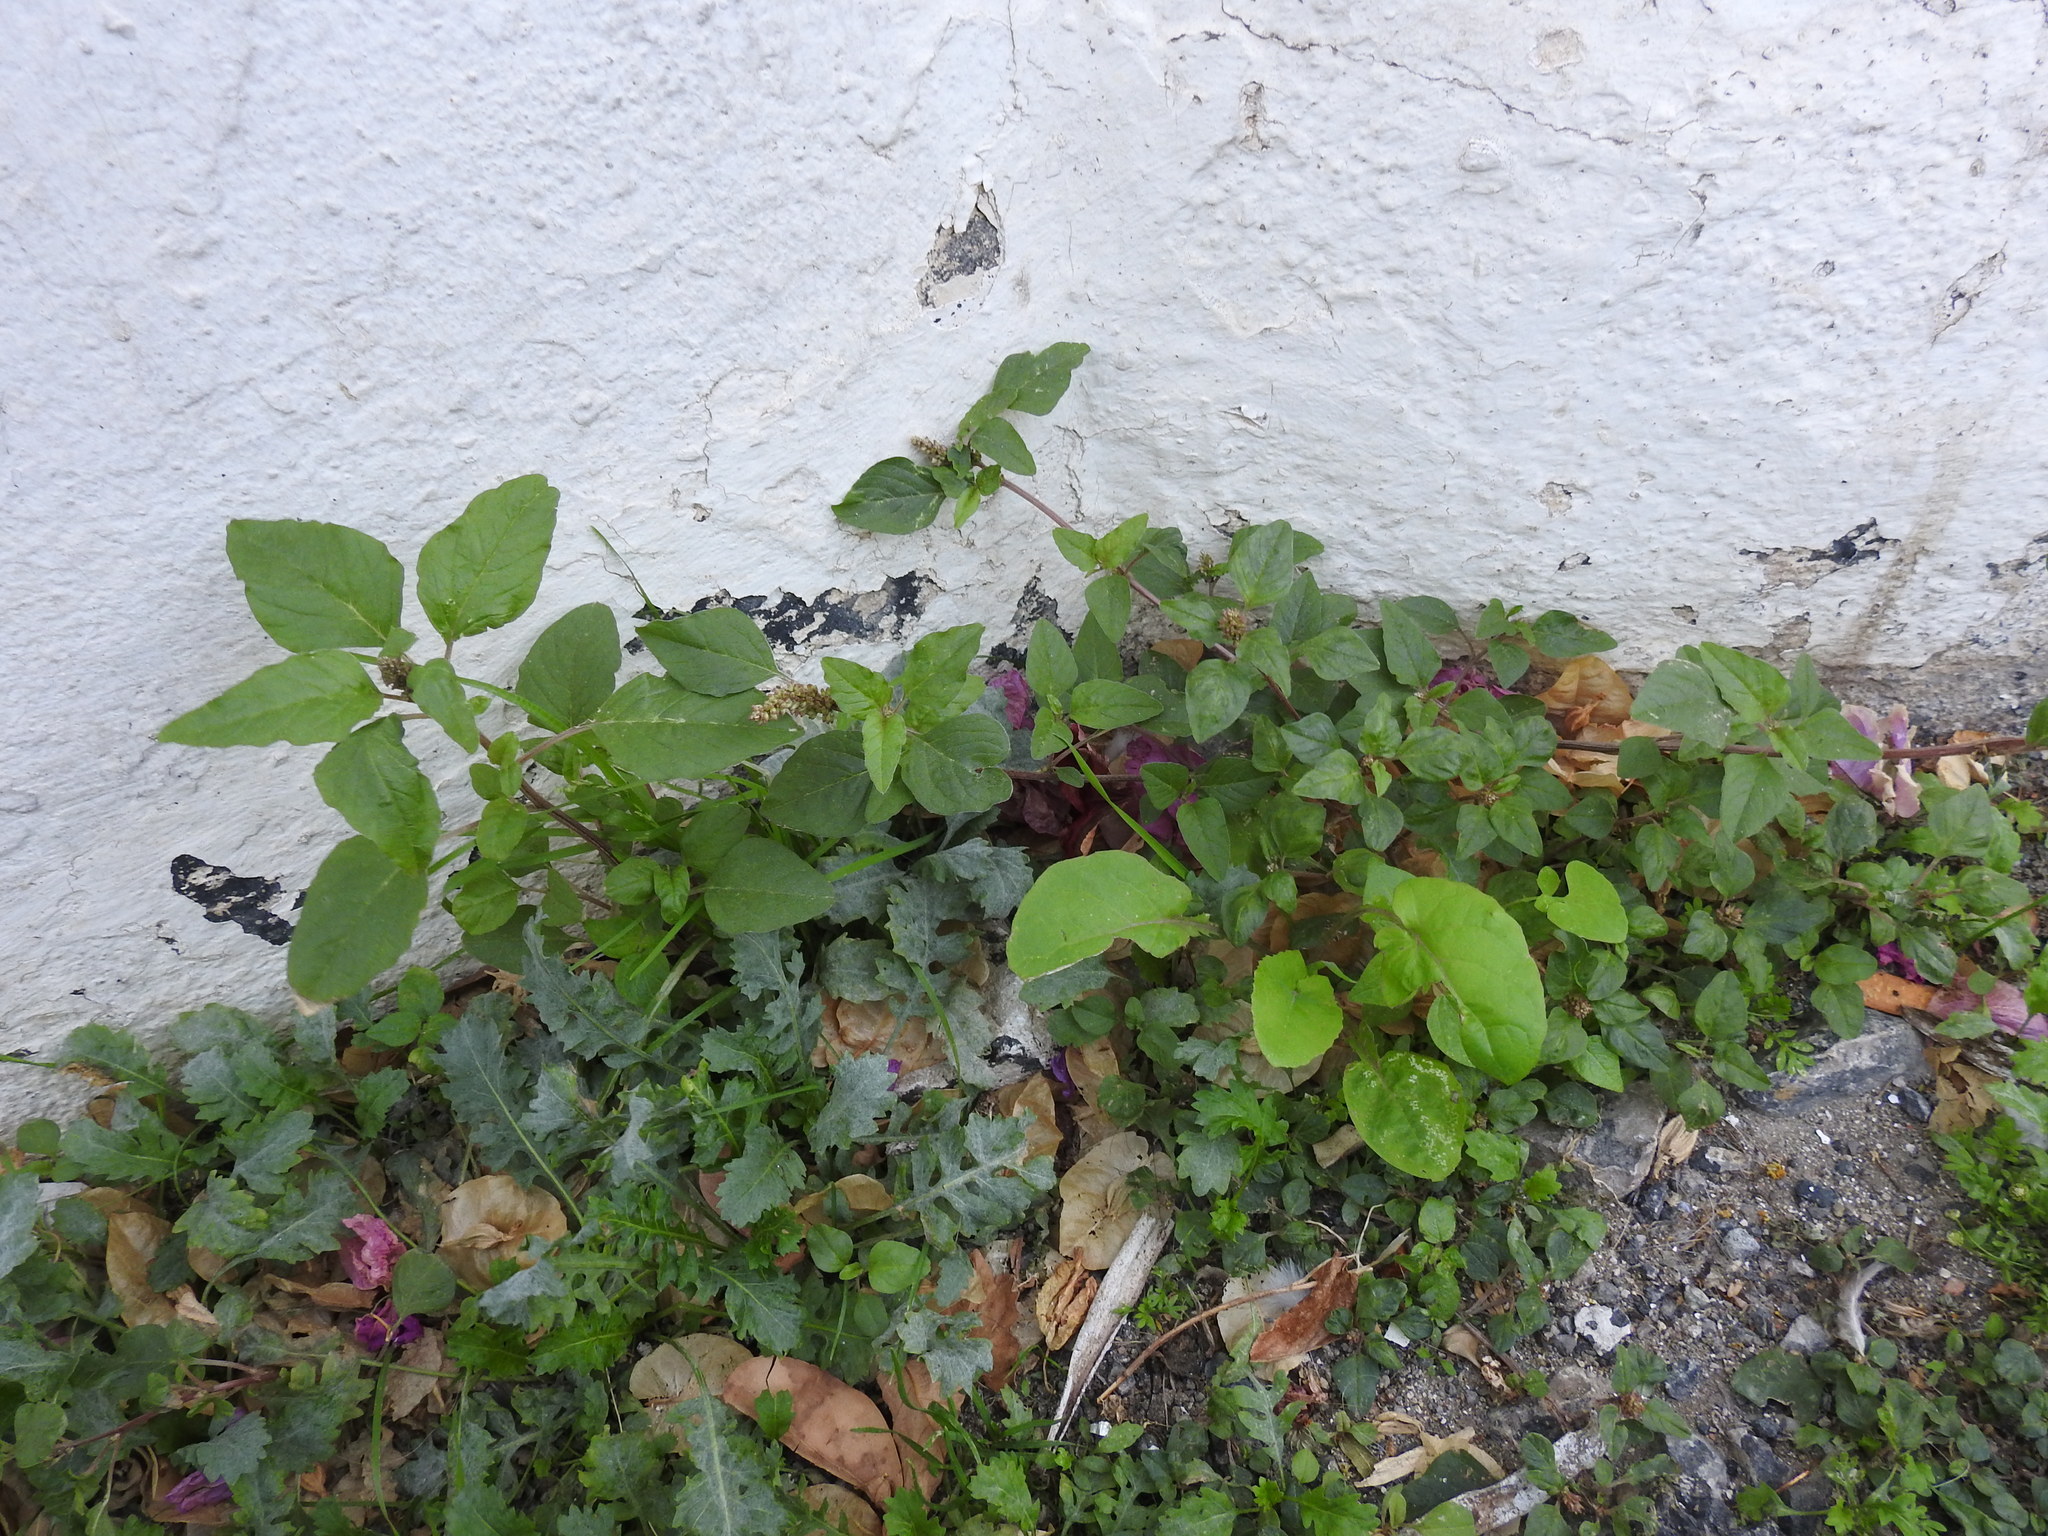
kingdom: Plantae
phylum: Tracheophyta
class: Magnoliopsida
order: Caryophyllales
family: Amaranthaceae
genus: Amaranthus
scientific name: Amaranthus deflexus
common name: Perennial pigweed
